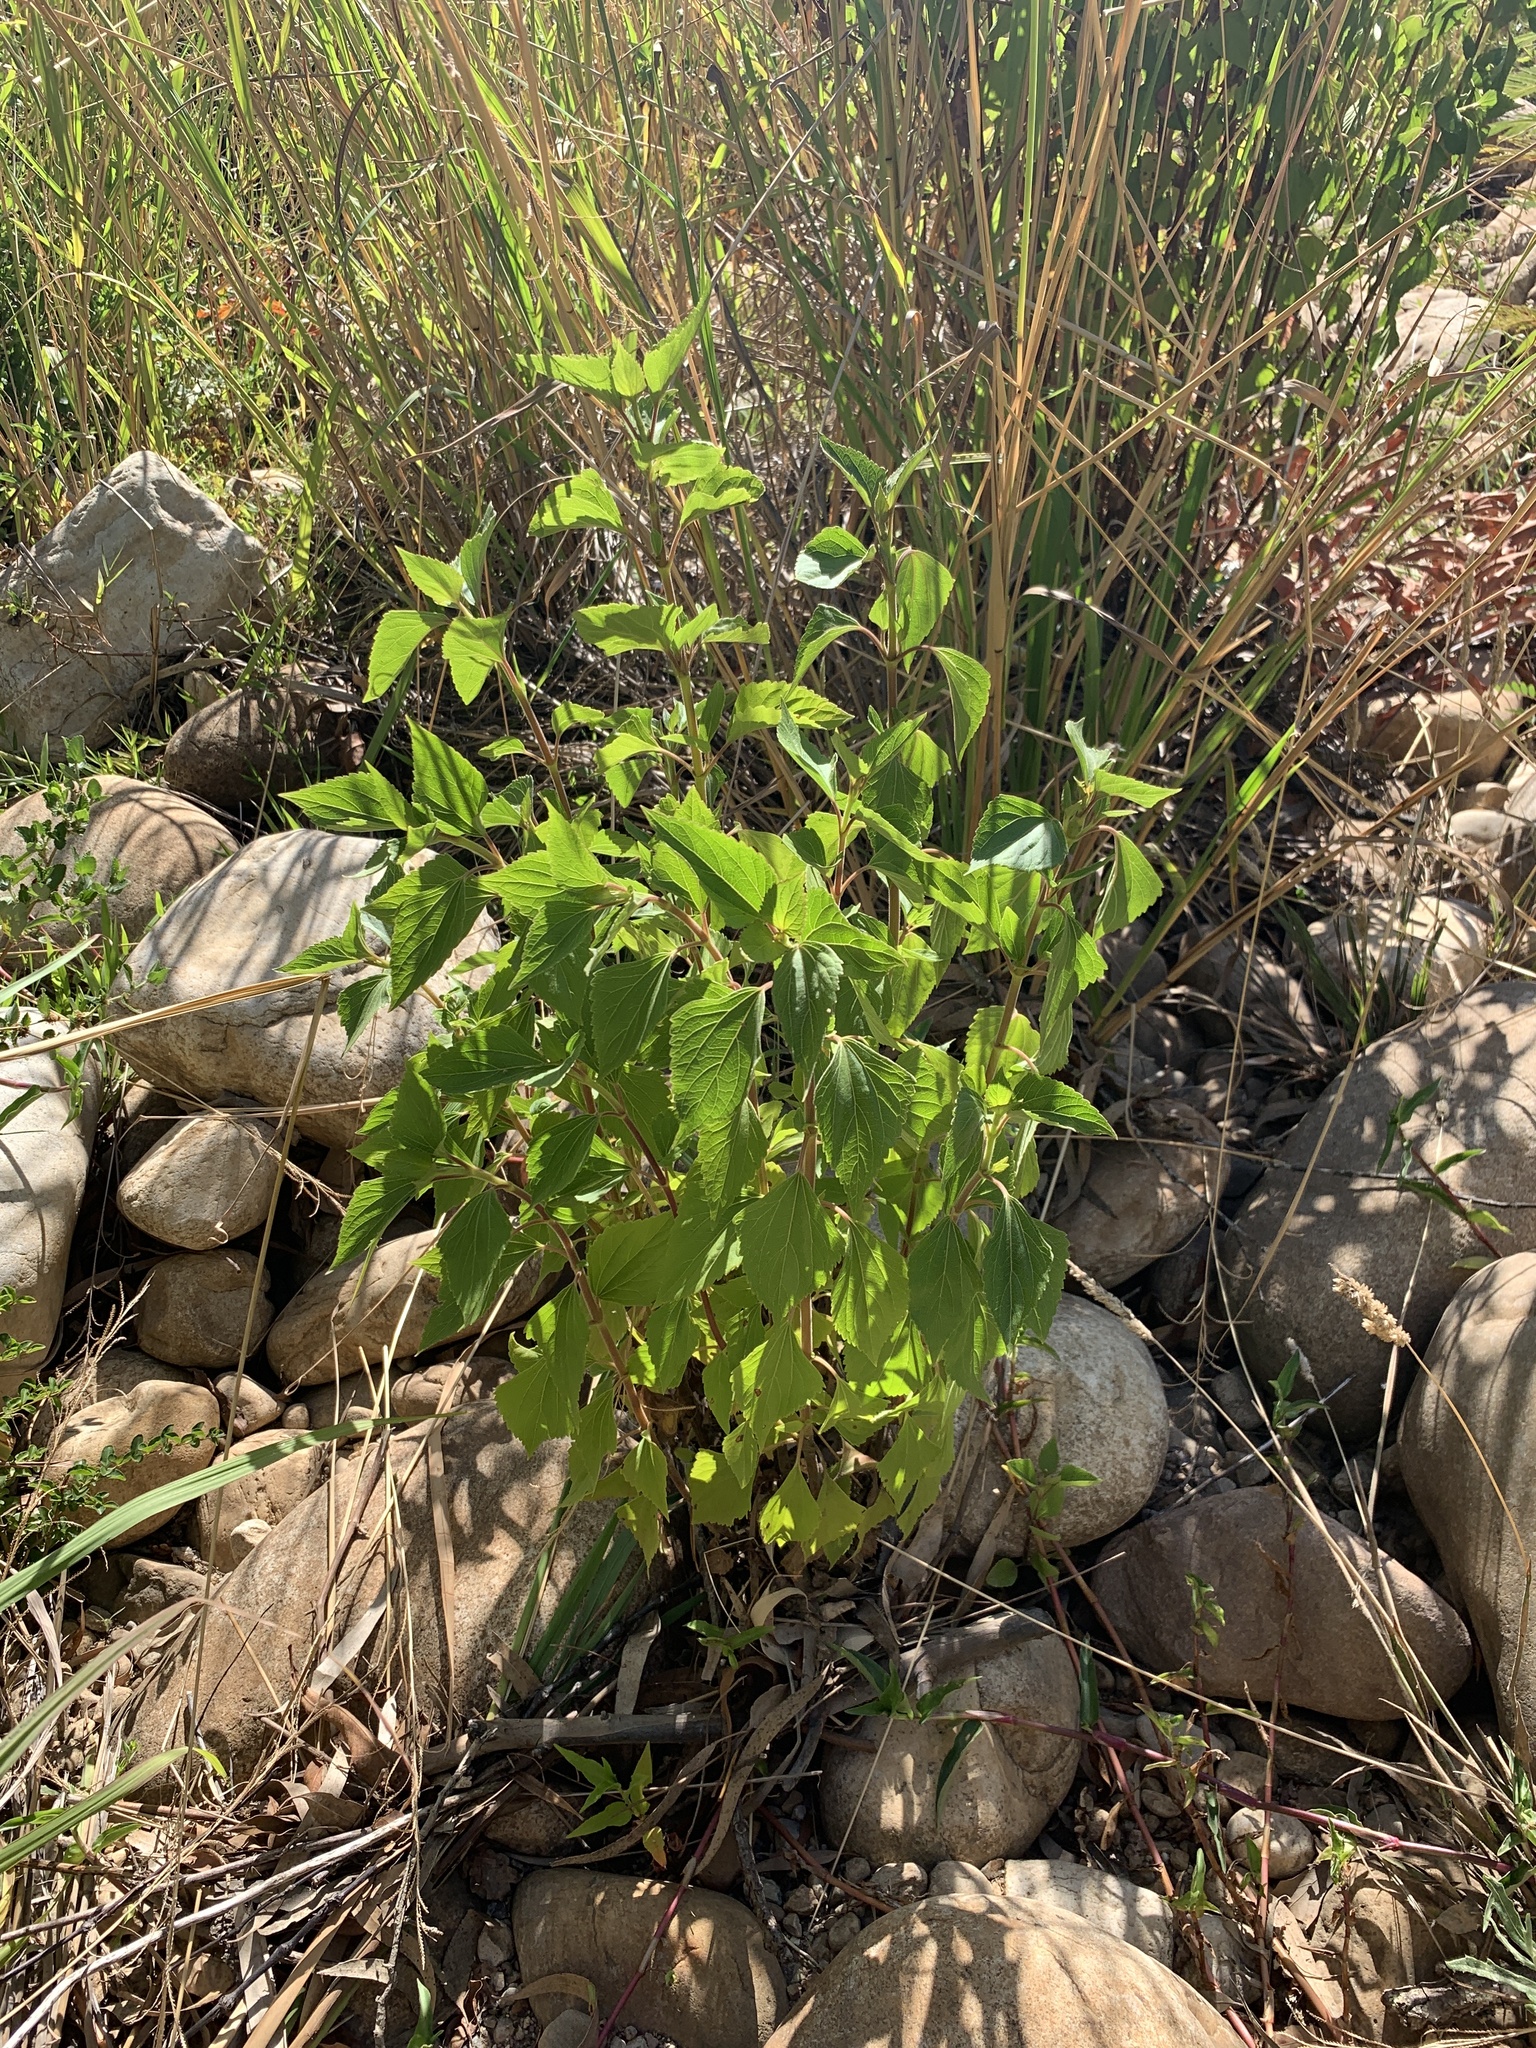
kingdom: Plantae
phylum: Tracheophyta
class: Magnoliopsida
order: Asterales
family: Asteraceae
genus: Ageratina
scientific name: Ageratina adenophora
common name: Sticky snakeroot
